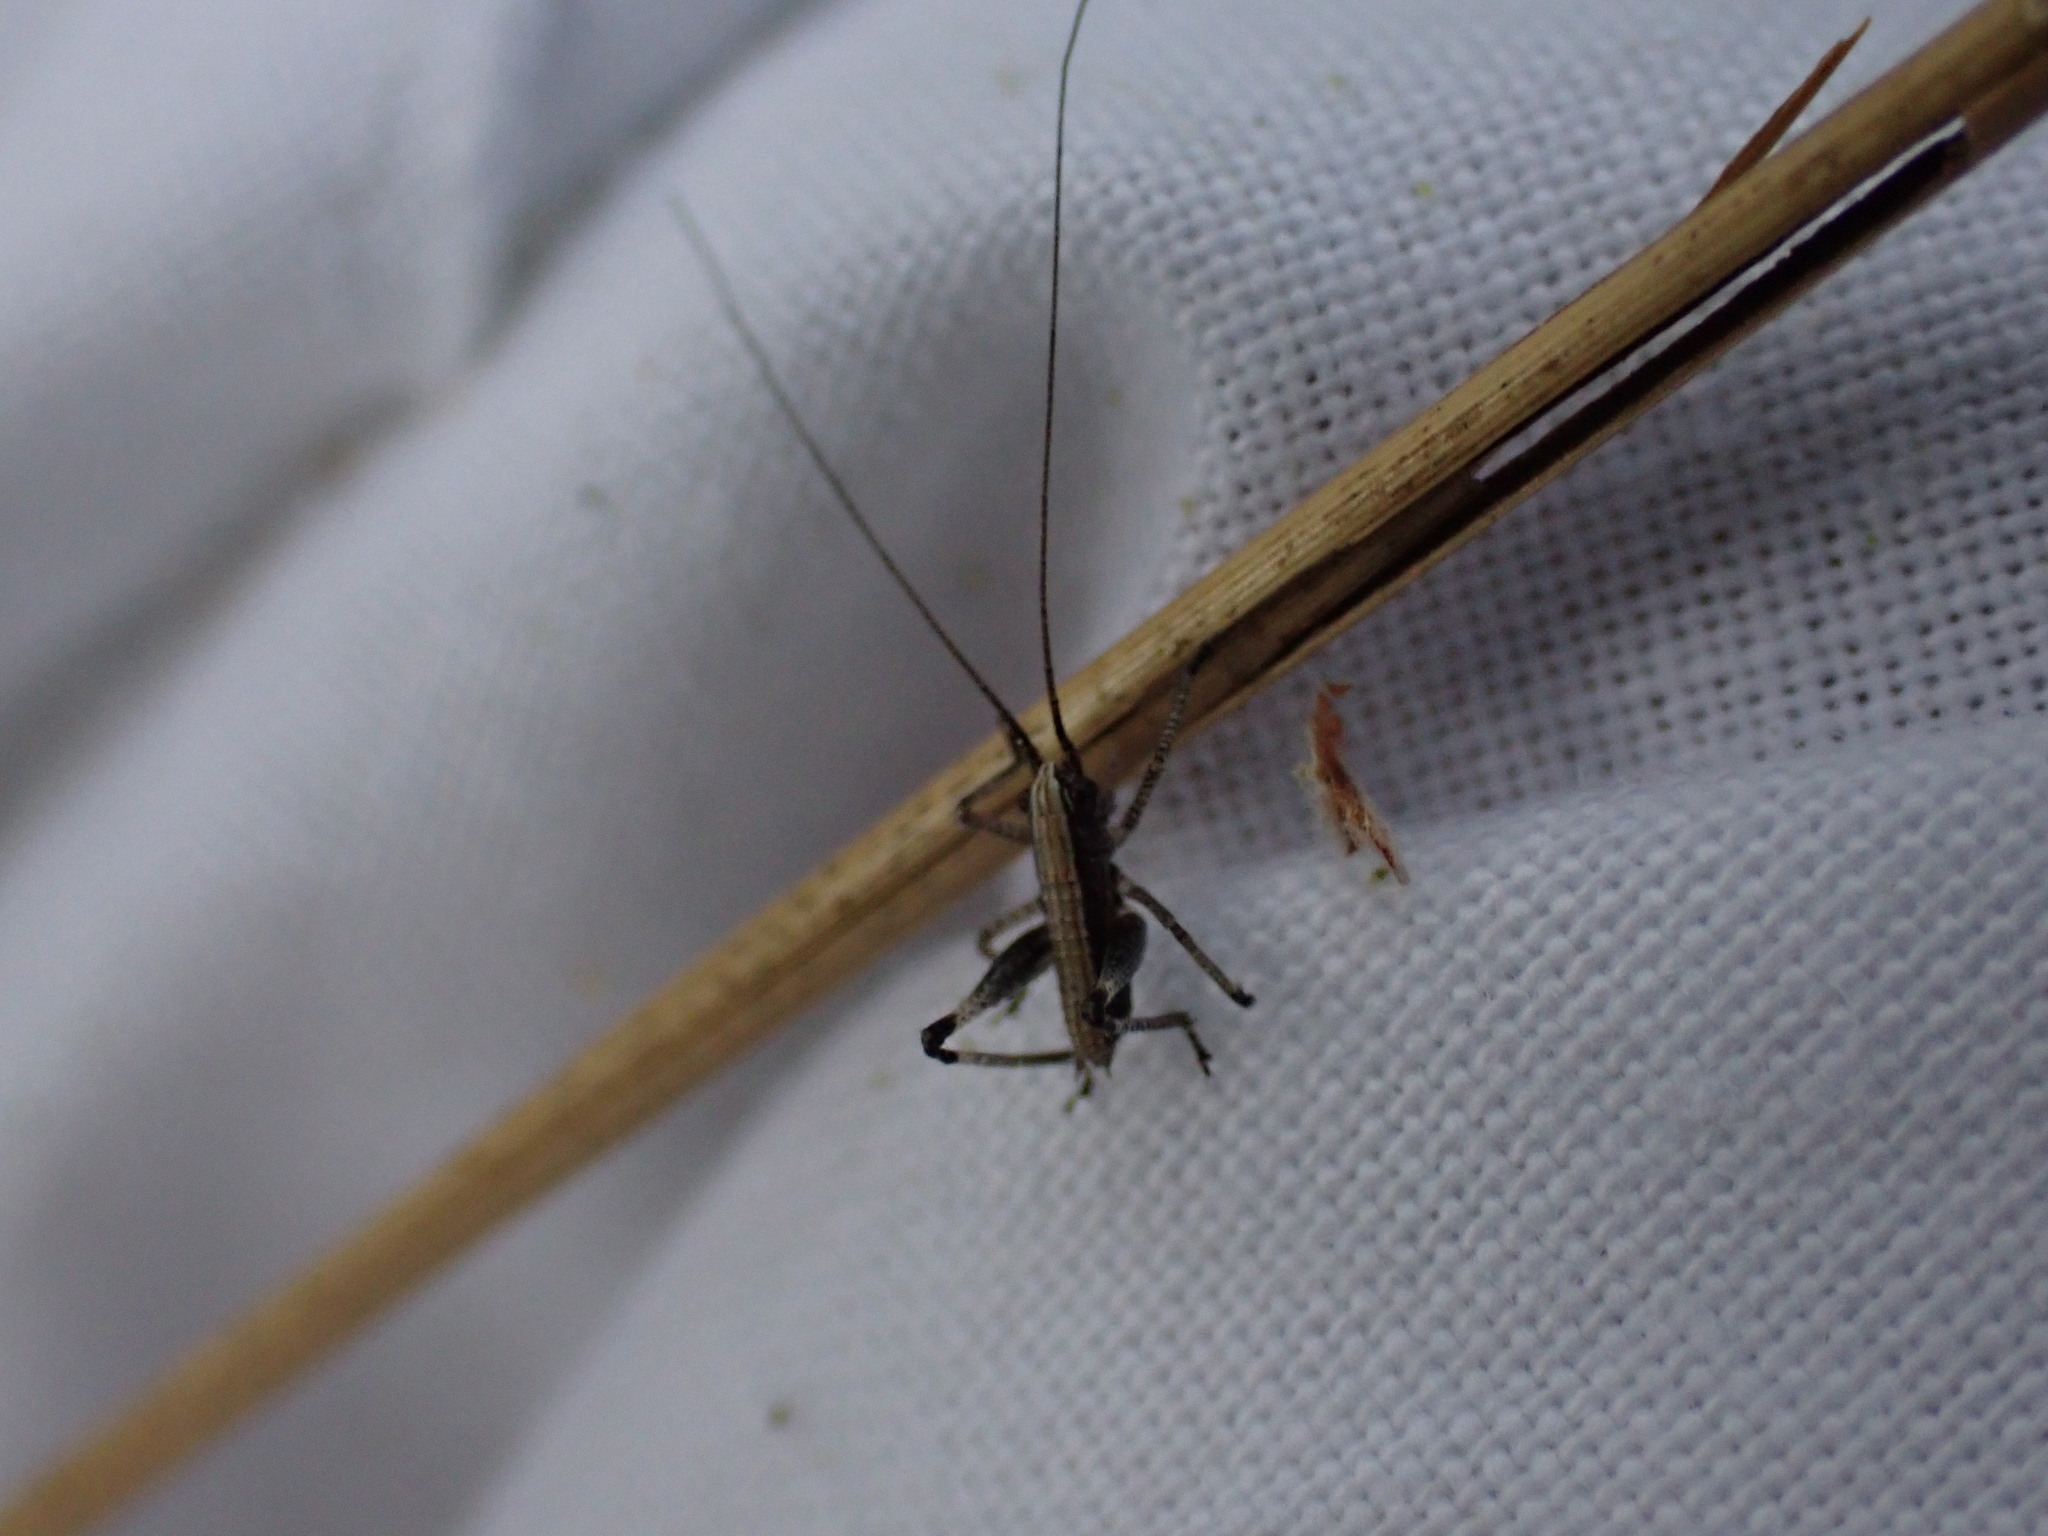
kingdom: Animalia
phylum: Arthropoda
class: Insecta
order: Orthoptera
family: Tettigoniidae
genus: Antaxius
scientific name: Antaxius pedestris
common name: Common mountain bush-cricket
